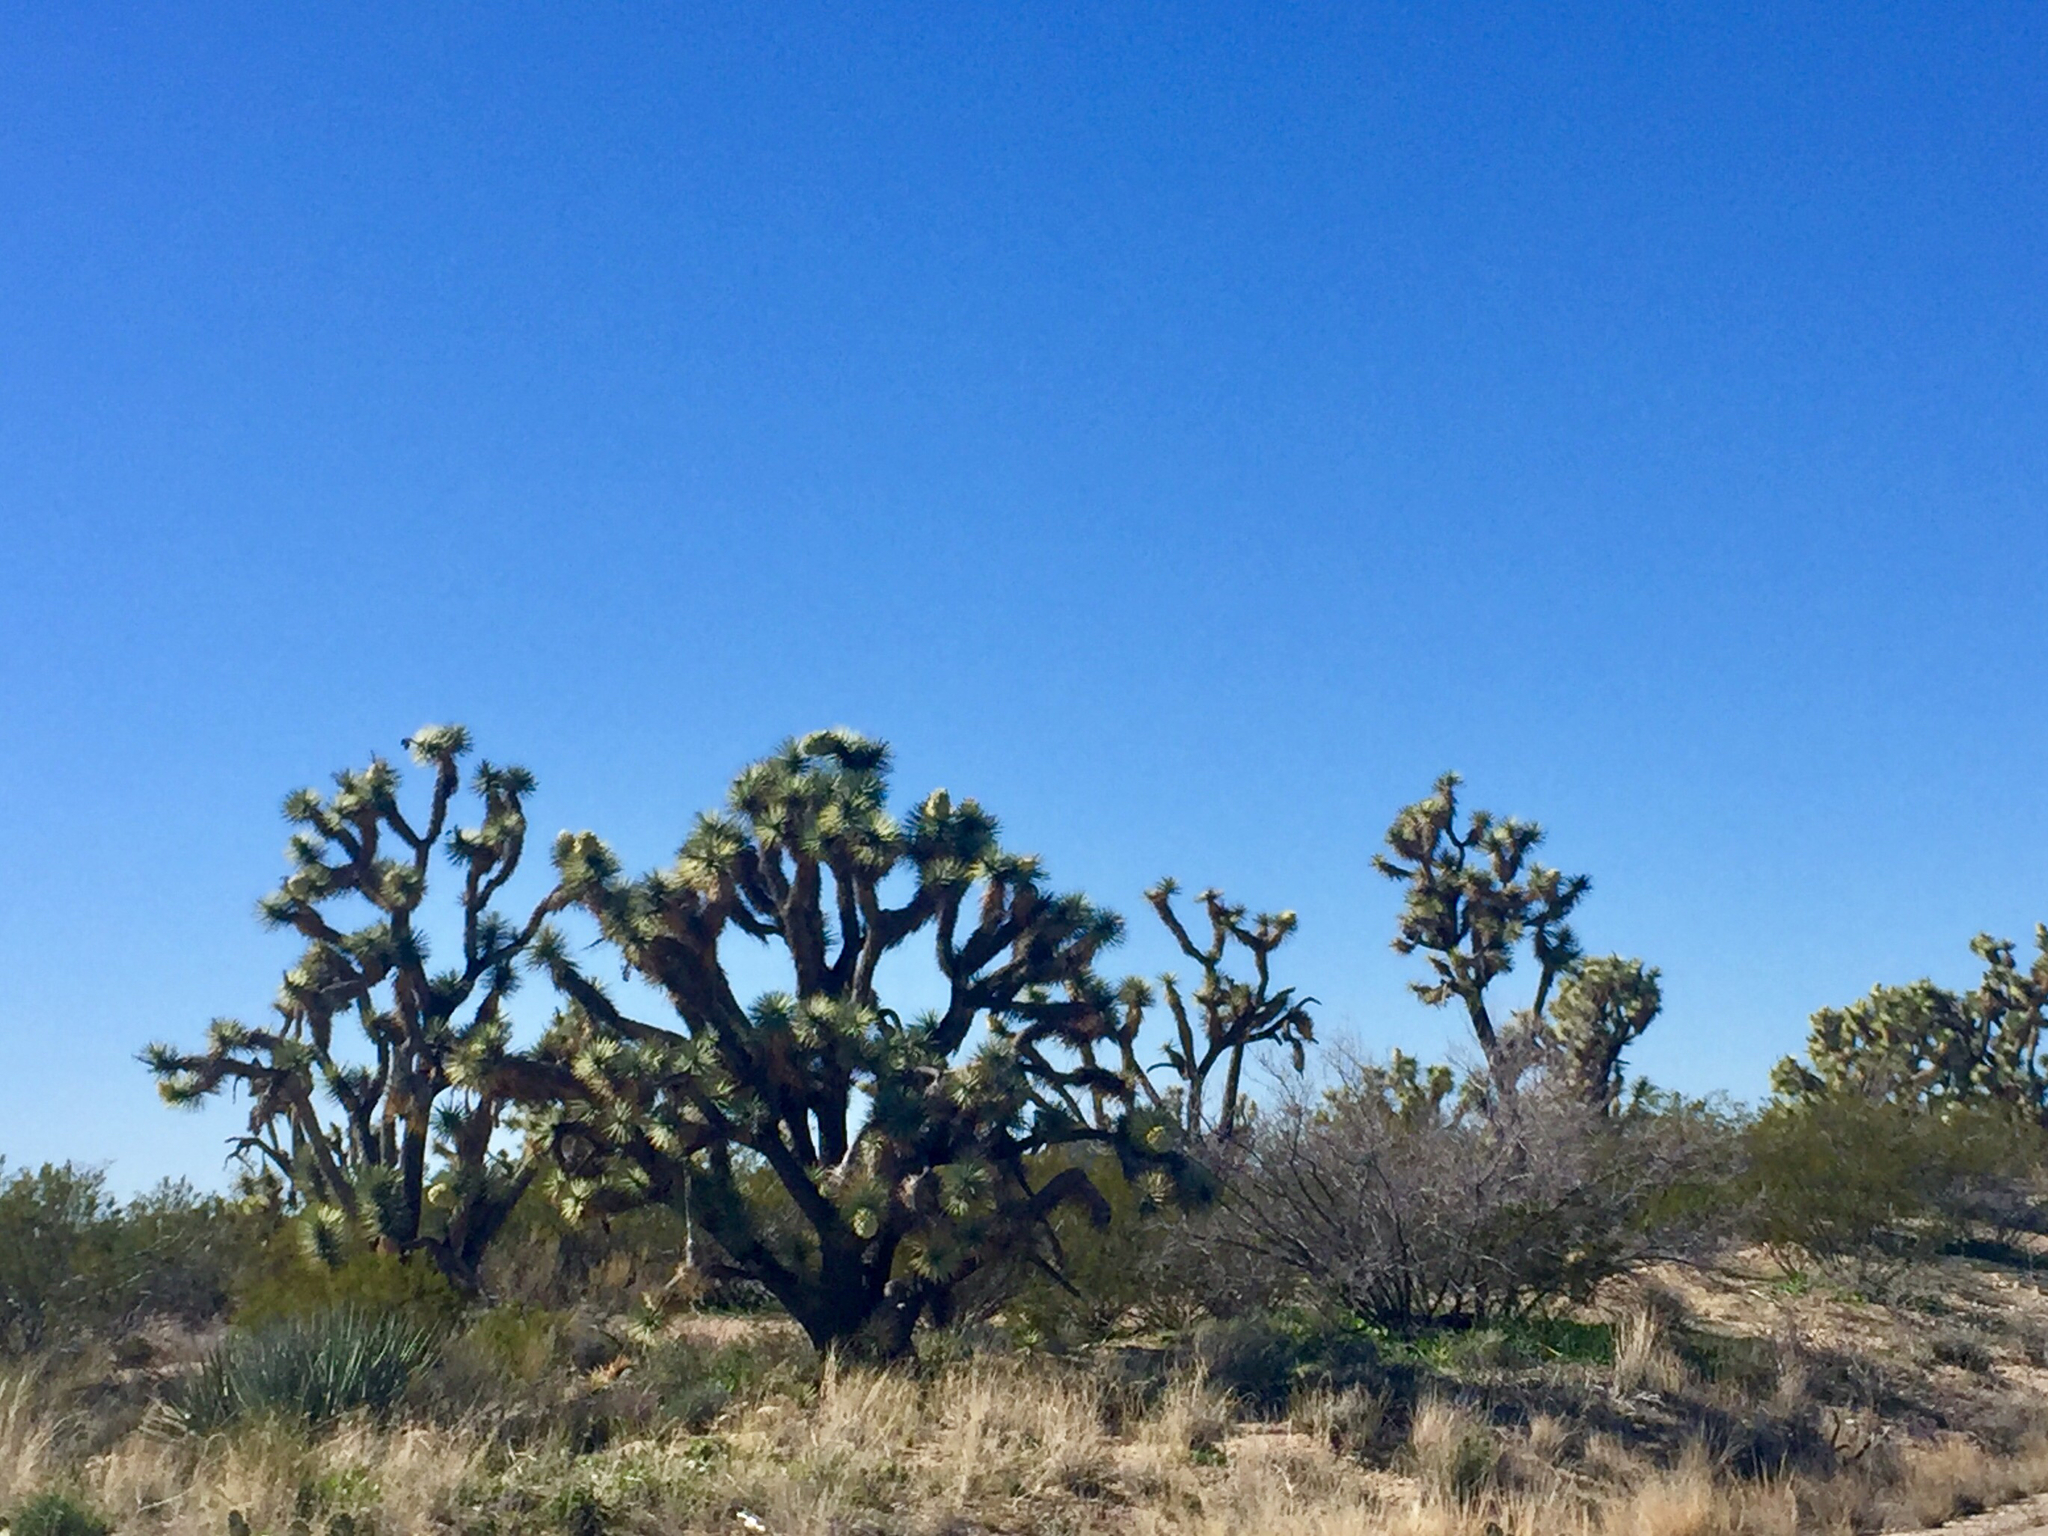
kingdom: Plantae
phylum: Tracheophyta
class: Liliopsida
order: Asparagales
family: Asparagaceae
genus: Yucca
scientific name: Yucca brevifolia
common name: Joshua tree
